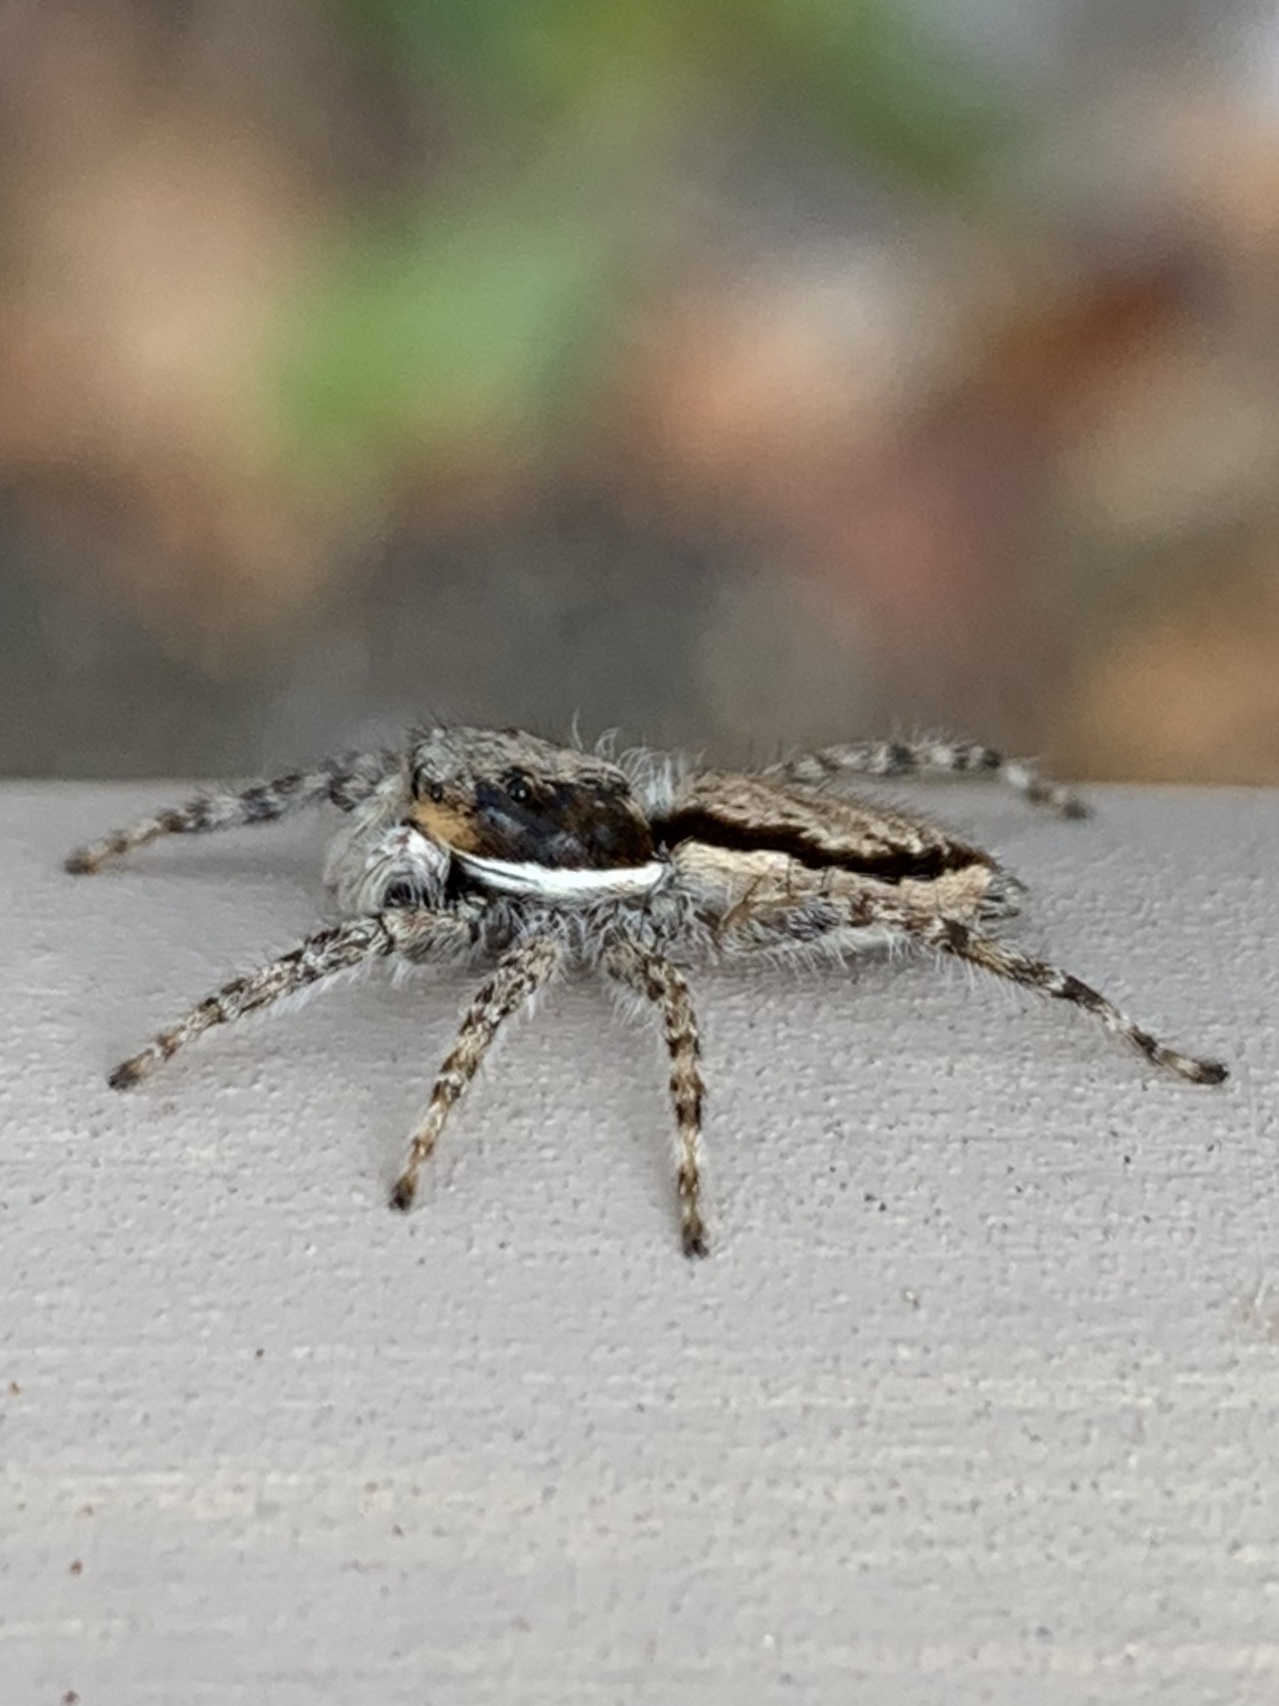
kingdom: Animalia
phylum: Arthropoda
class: Arachnida
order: Araneae
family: Salticidae
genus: Menemerus
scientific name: Menemerus bivittatus
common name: Gray wall jumper
